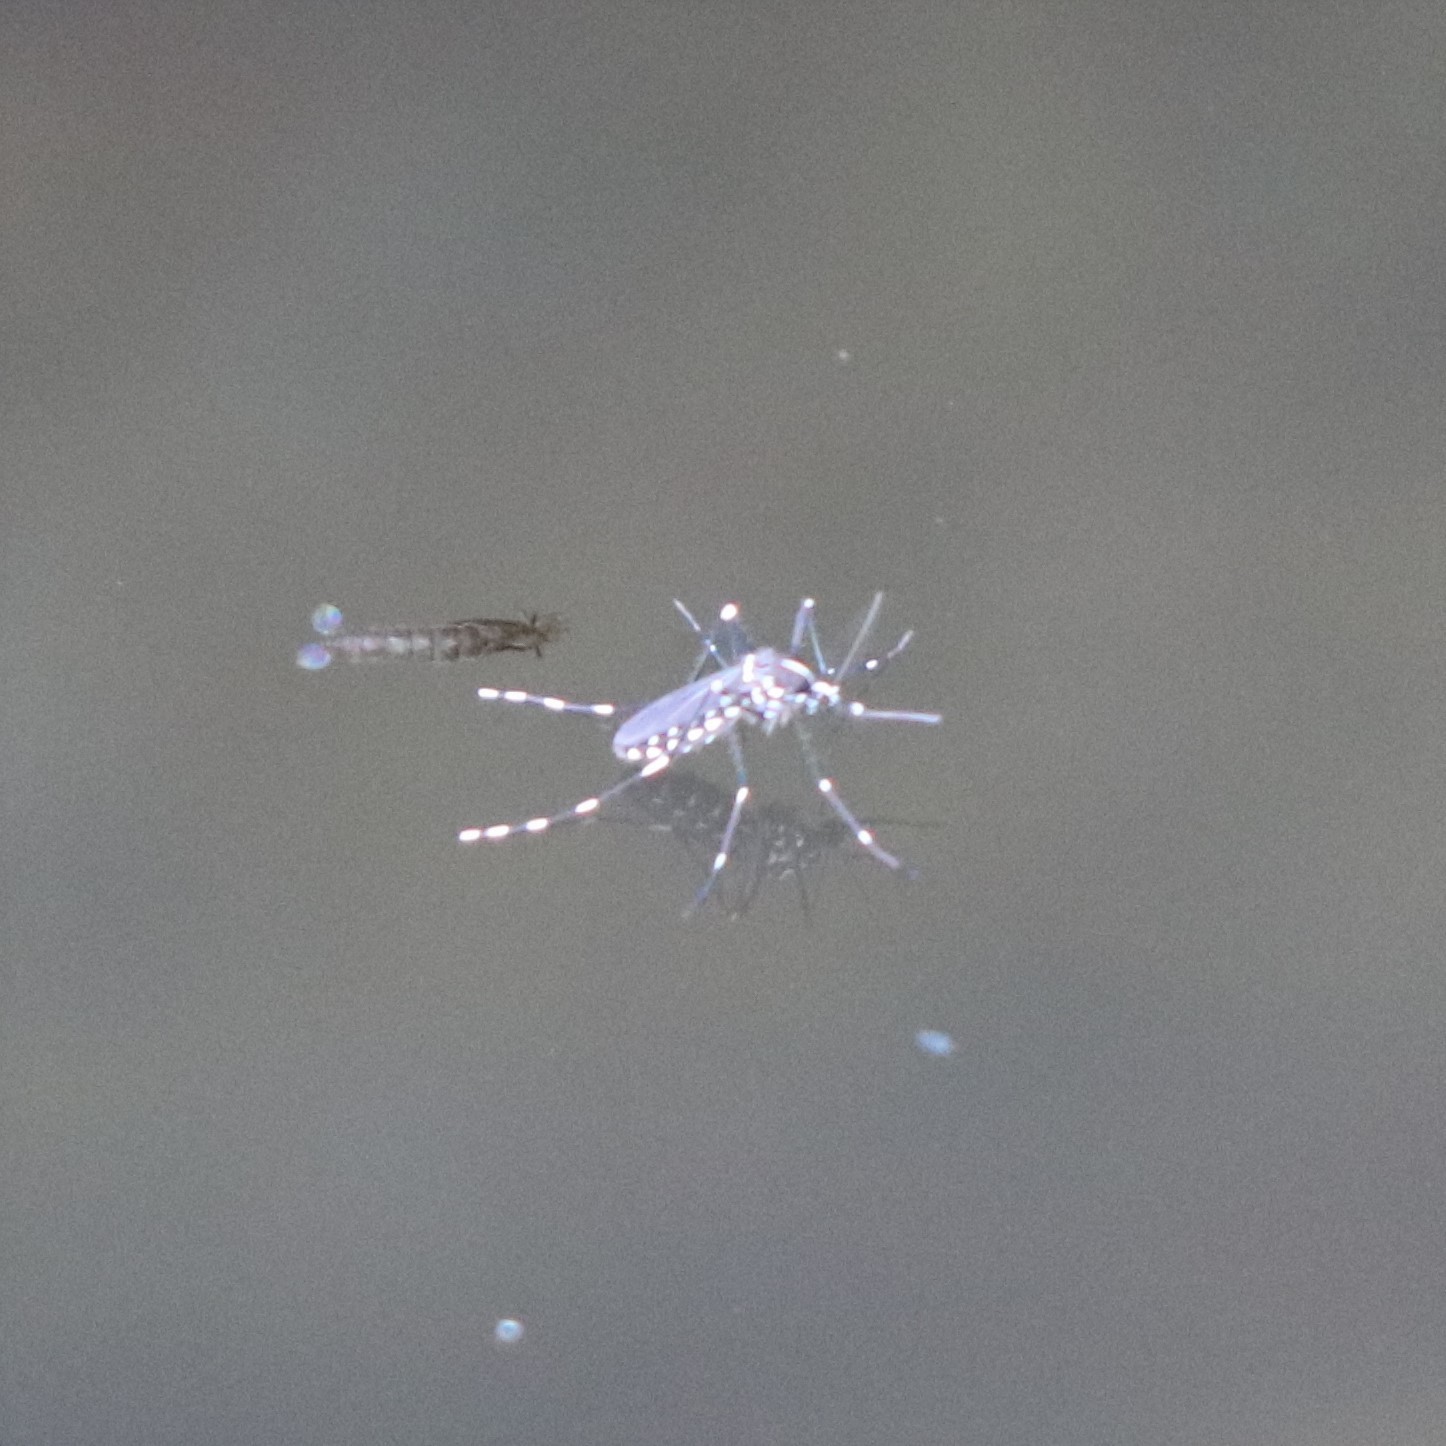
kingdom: Animalia
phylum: Arthropoda
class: Insecta
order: Diptera
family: Culicidae
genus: Aedes
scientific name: Aedes albopictus
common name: Tiger mosquito
